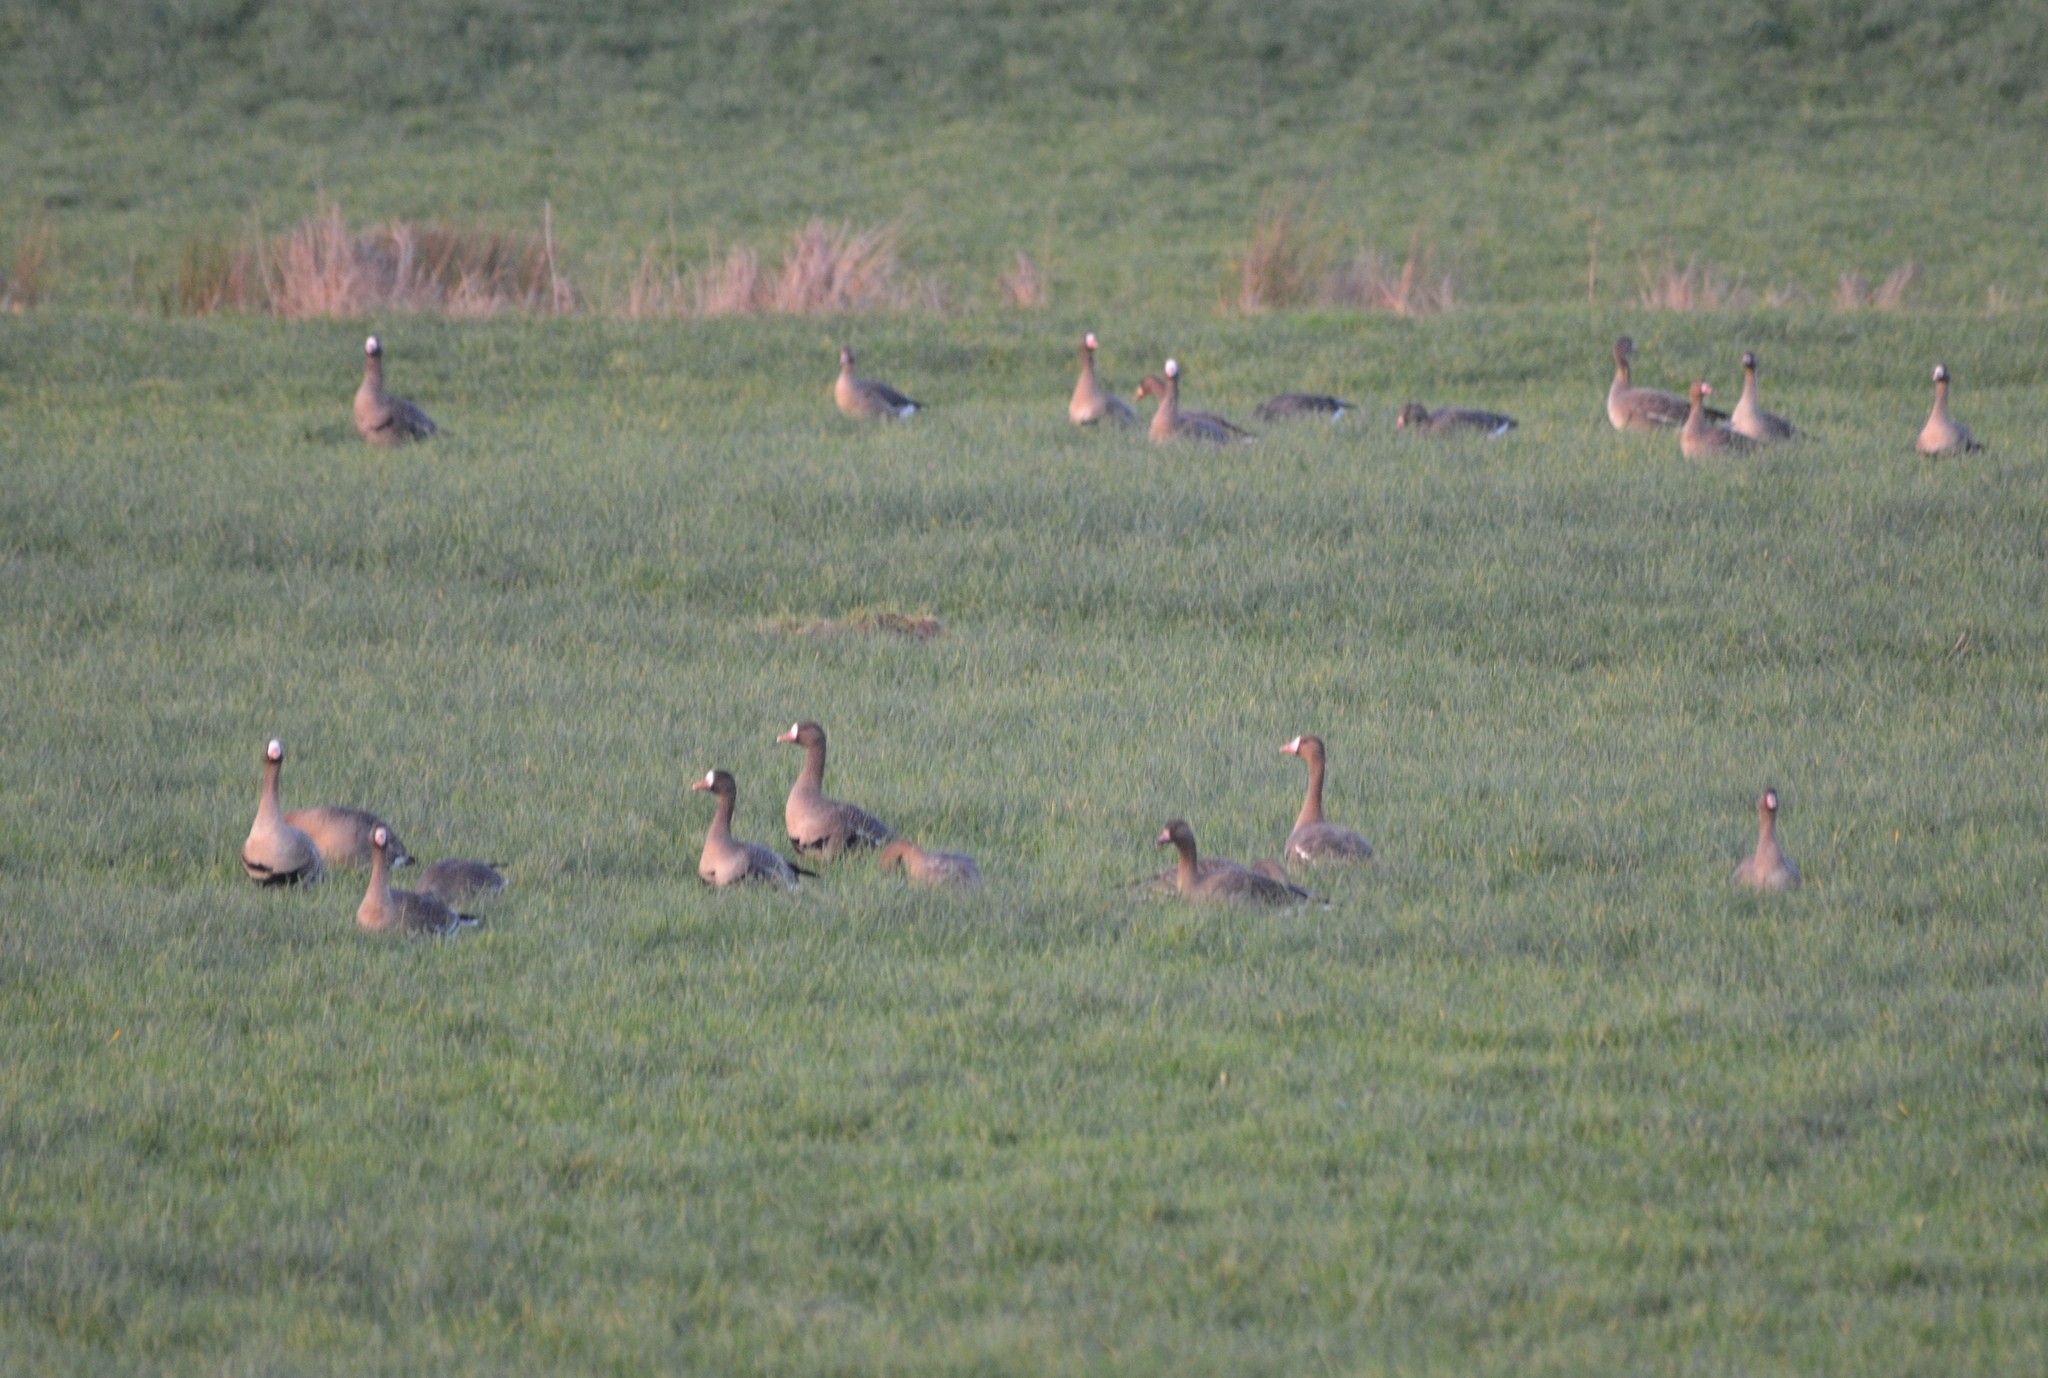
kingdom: Animalia
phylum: Chordata
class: Aves
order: Anseriformes
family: Anatidae
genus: Anser
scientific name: Anser albifrons
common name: Greater white-fronted goose
